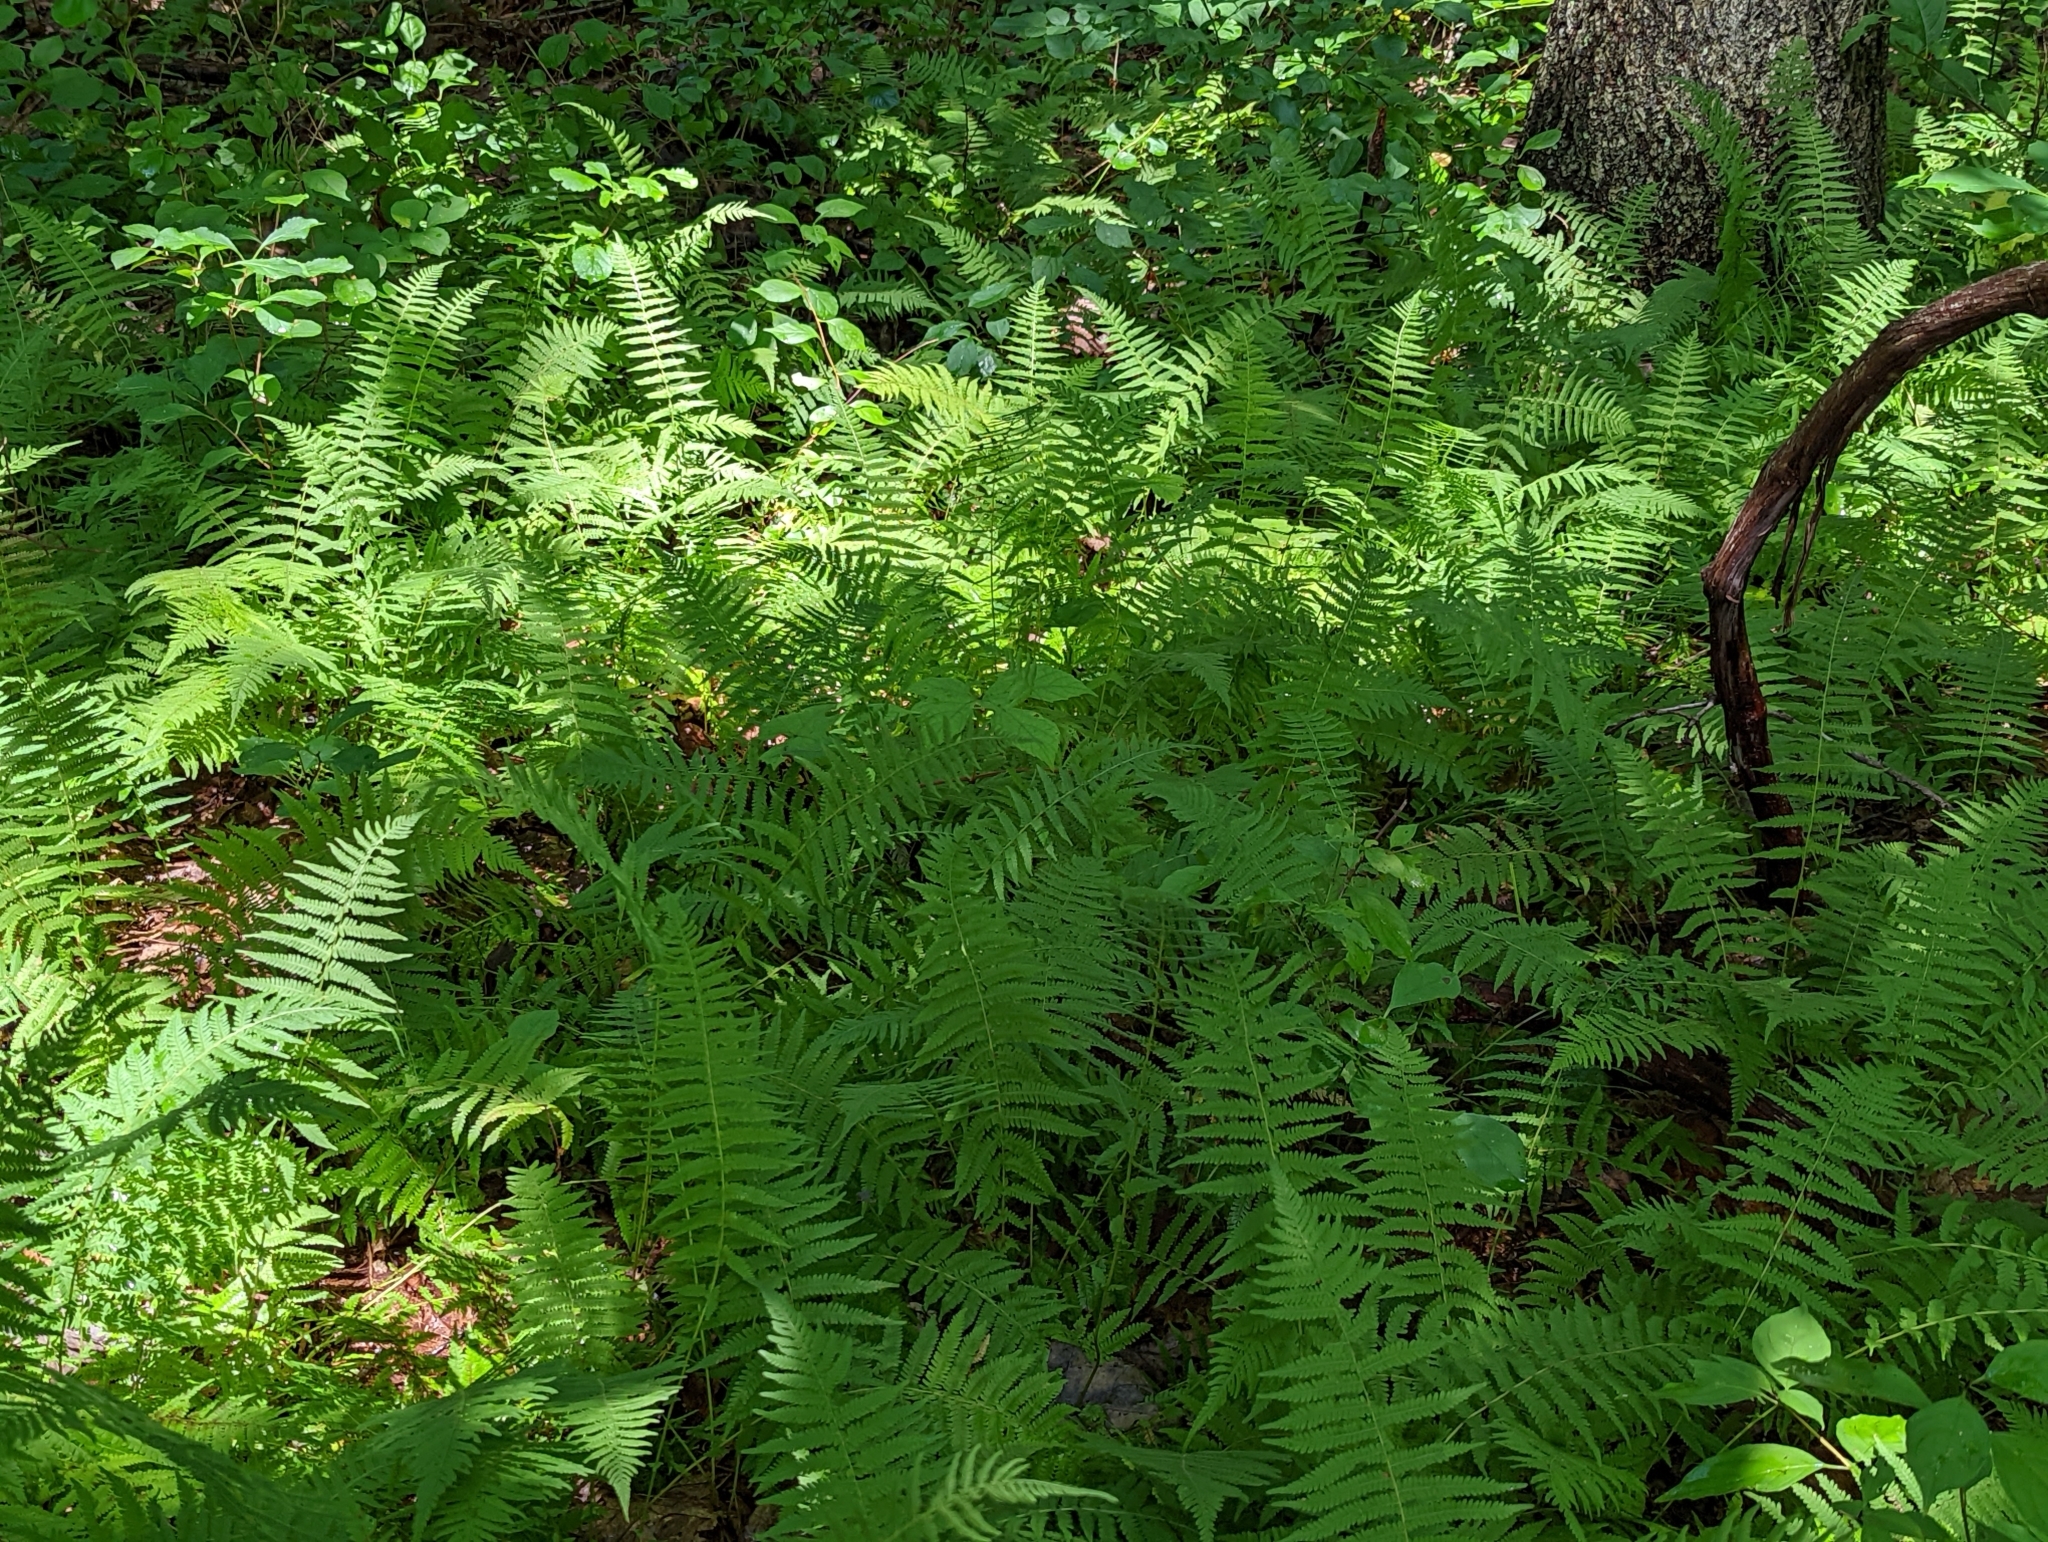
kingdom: Plantae
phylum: Tracheophyta
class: Polypodiopsida
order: Polypodiales
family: Thelypteridaceae
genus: Amauropelta
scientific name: Amauropelta noveboracensis
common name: New york fern
